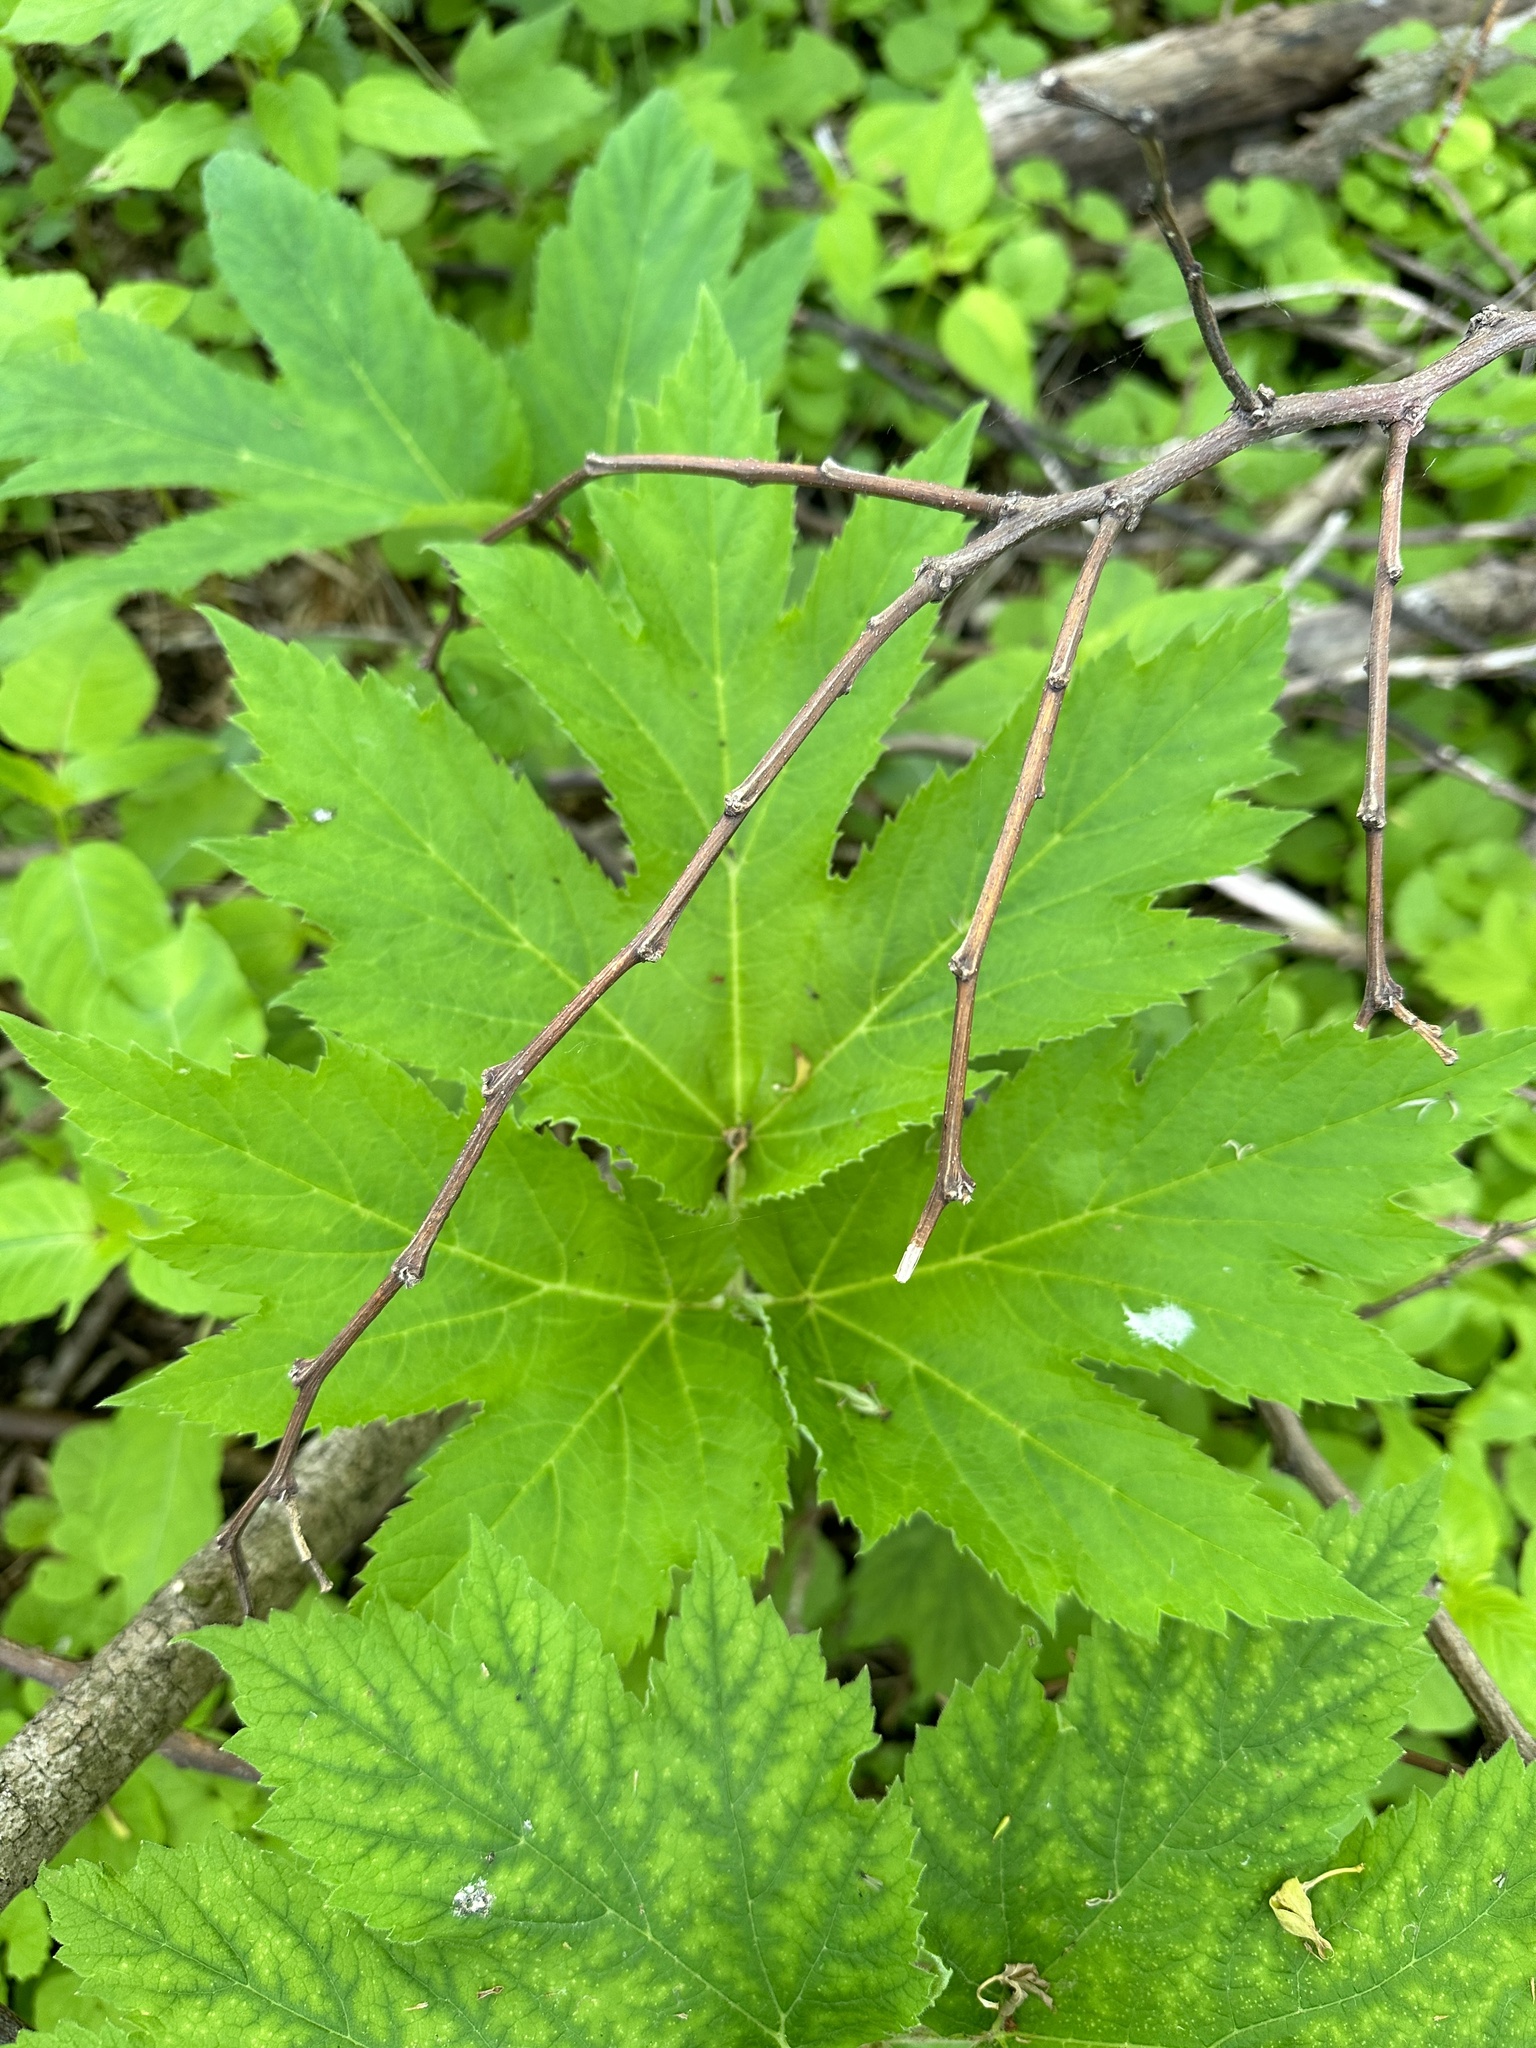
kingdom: Plantae
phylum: Tracheophyta
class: Magnoliopsida
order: Apiales
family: Apiaceae
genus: Heracleum
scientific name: Heracleum maximum
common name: American cow parsnip
